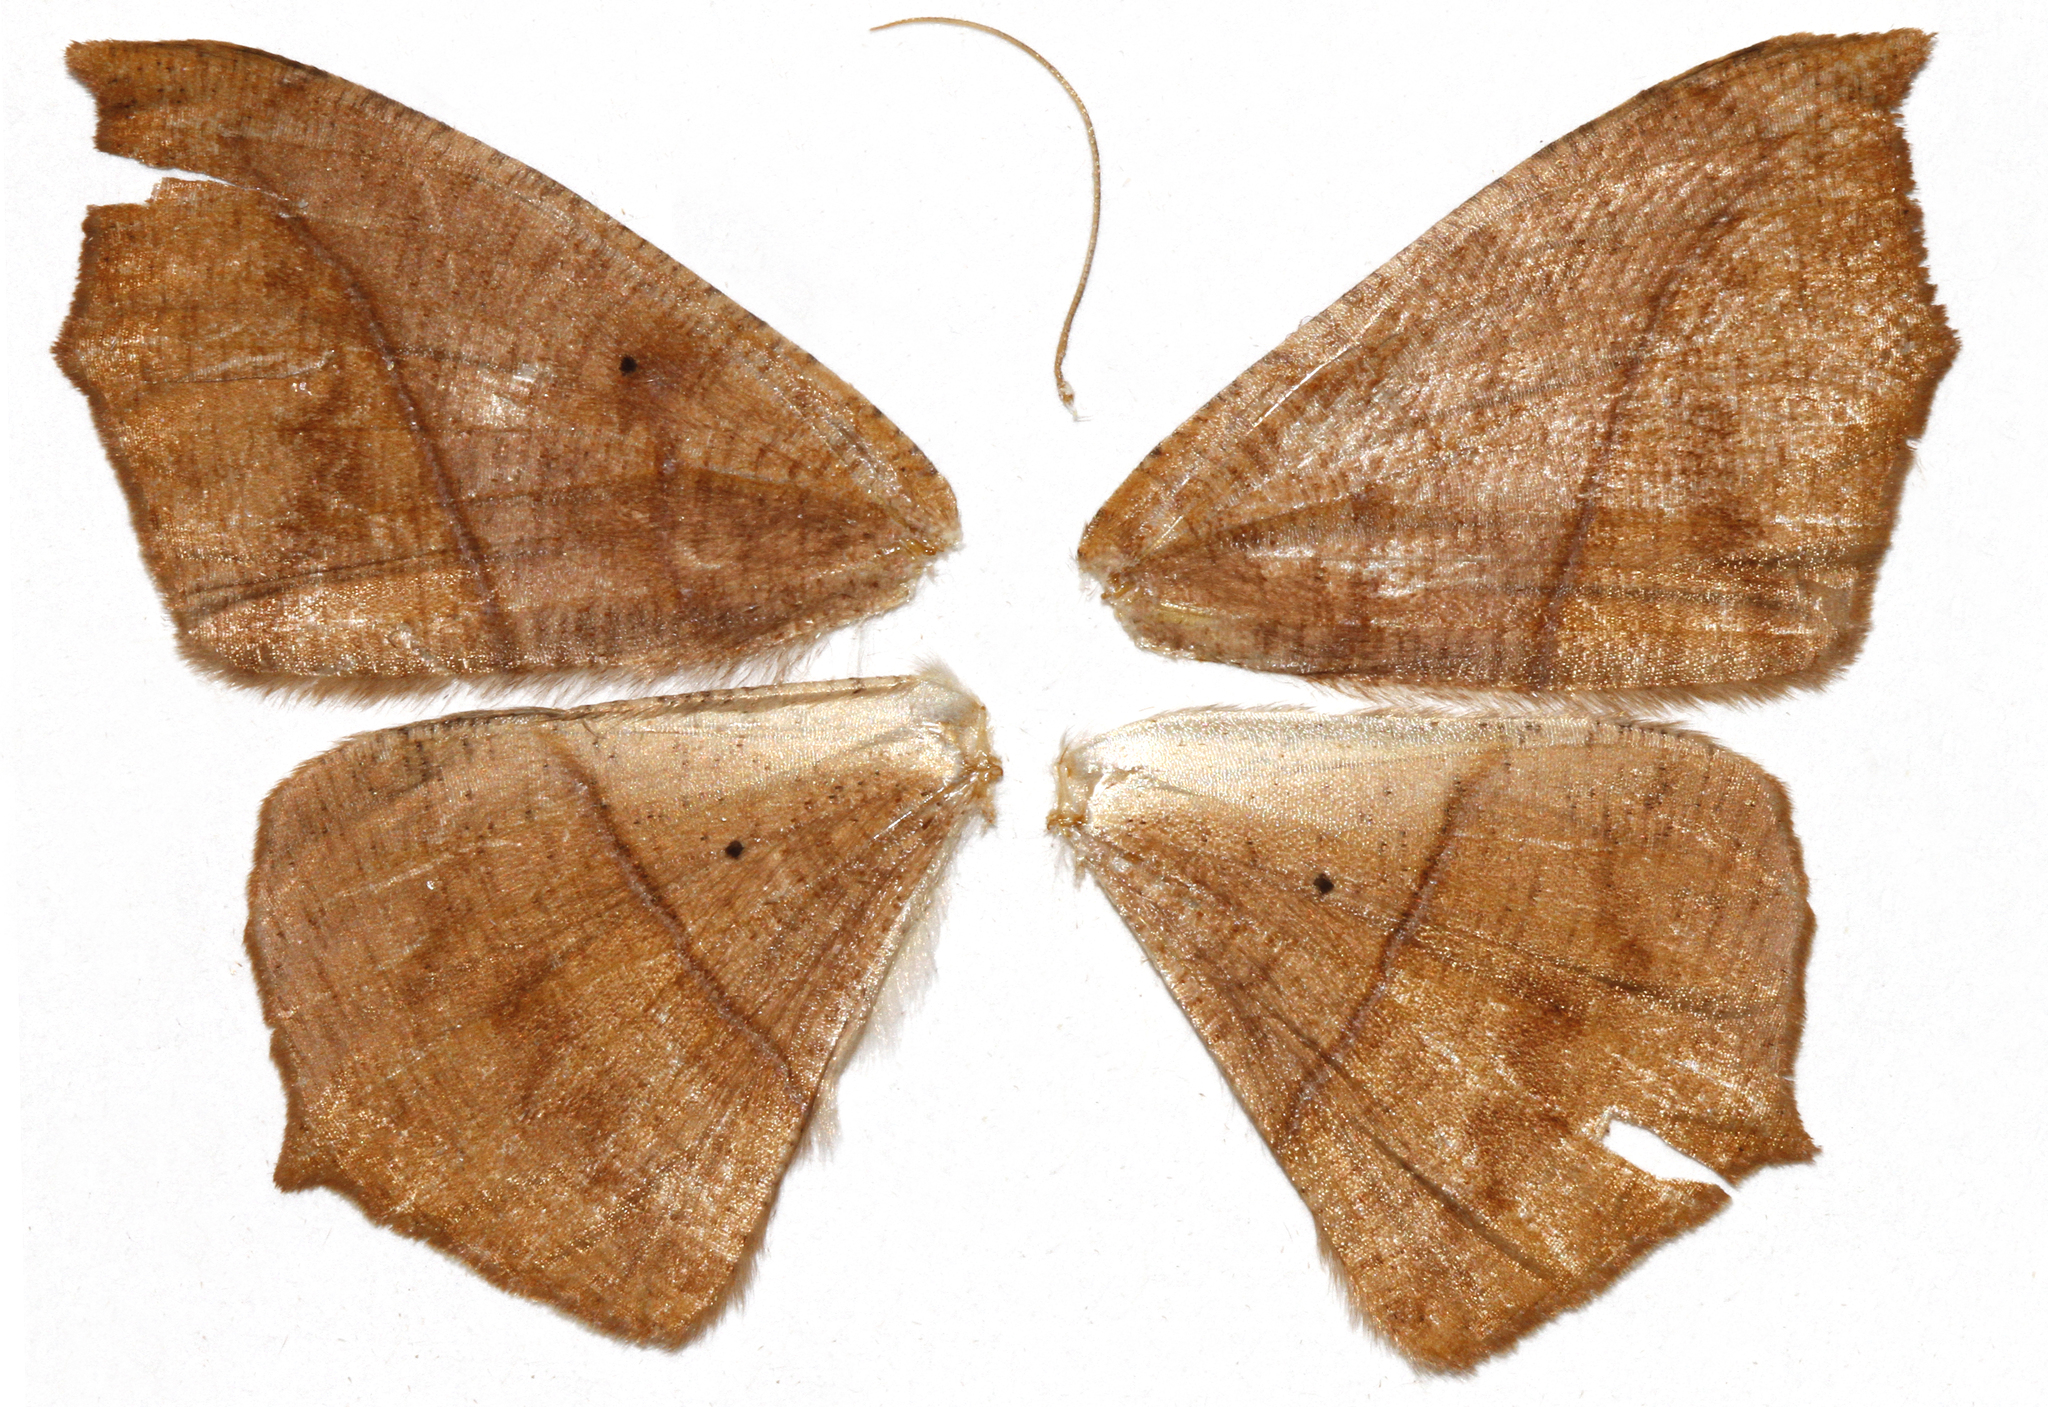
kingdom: Animalia
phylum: Arthropoda
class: Insecta
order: Lepidoptera
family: Geometridae
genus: Prochoerodes
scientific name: Prochoerodes lineola
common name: Large maple spanworm
